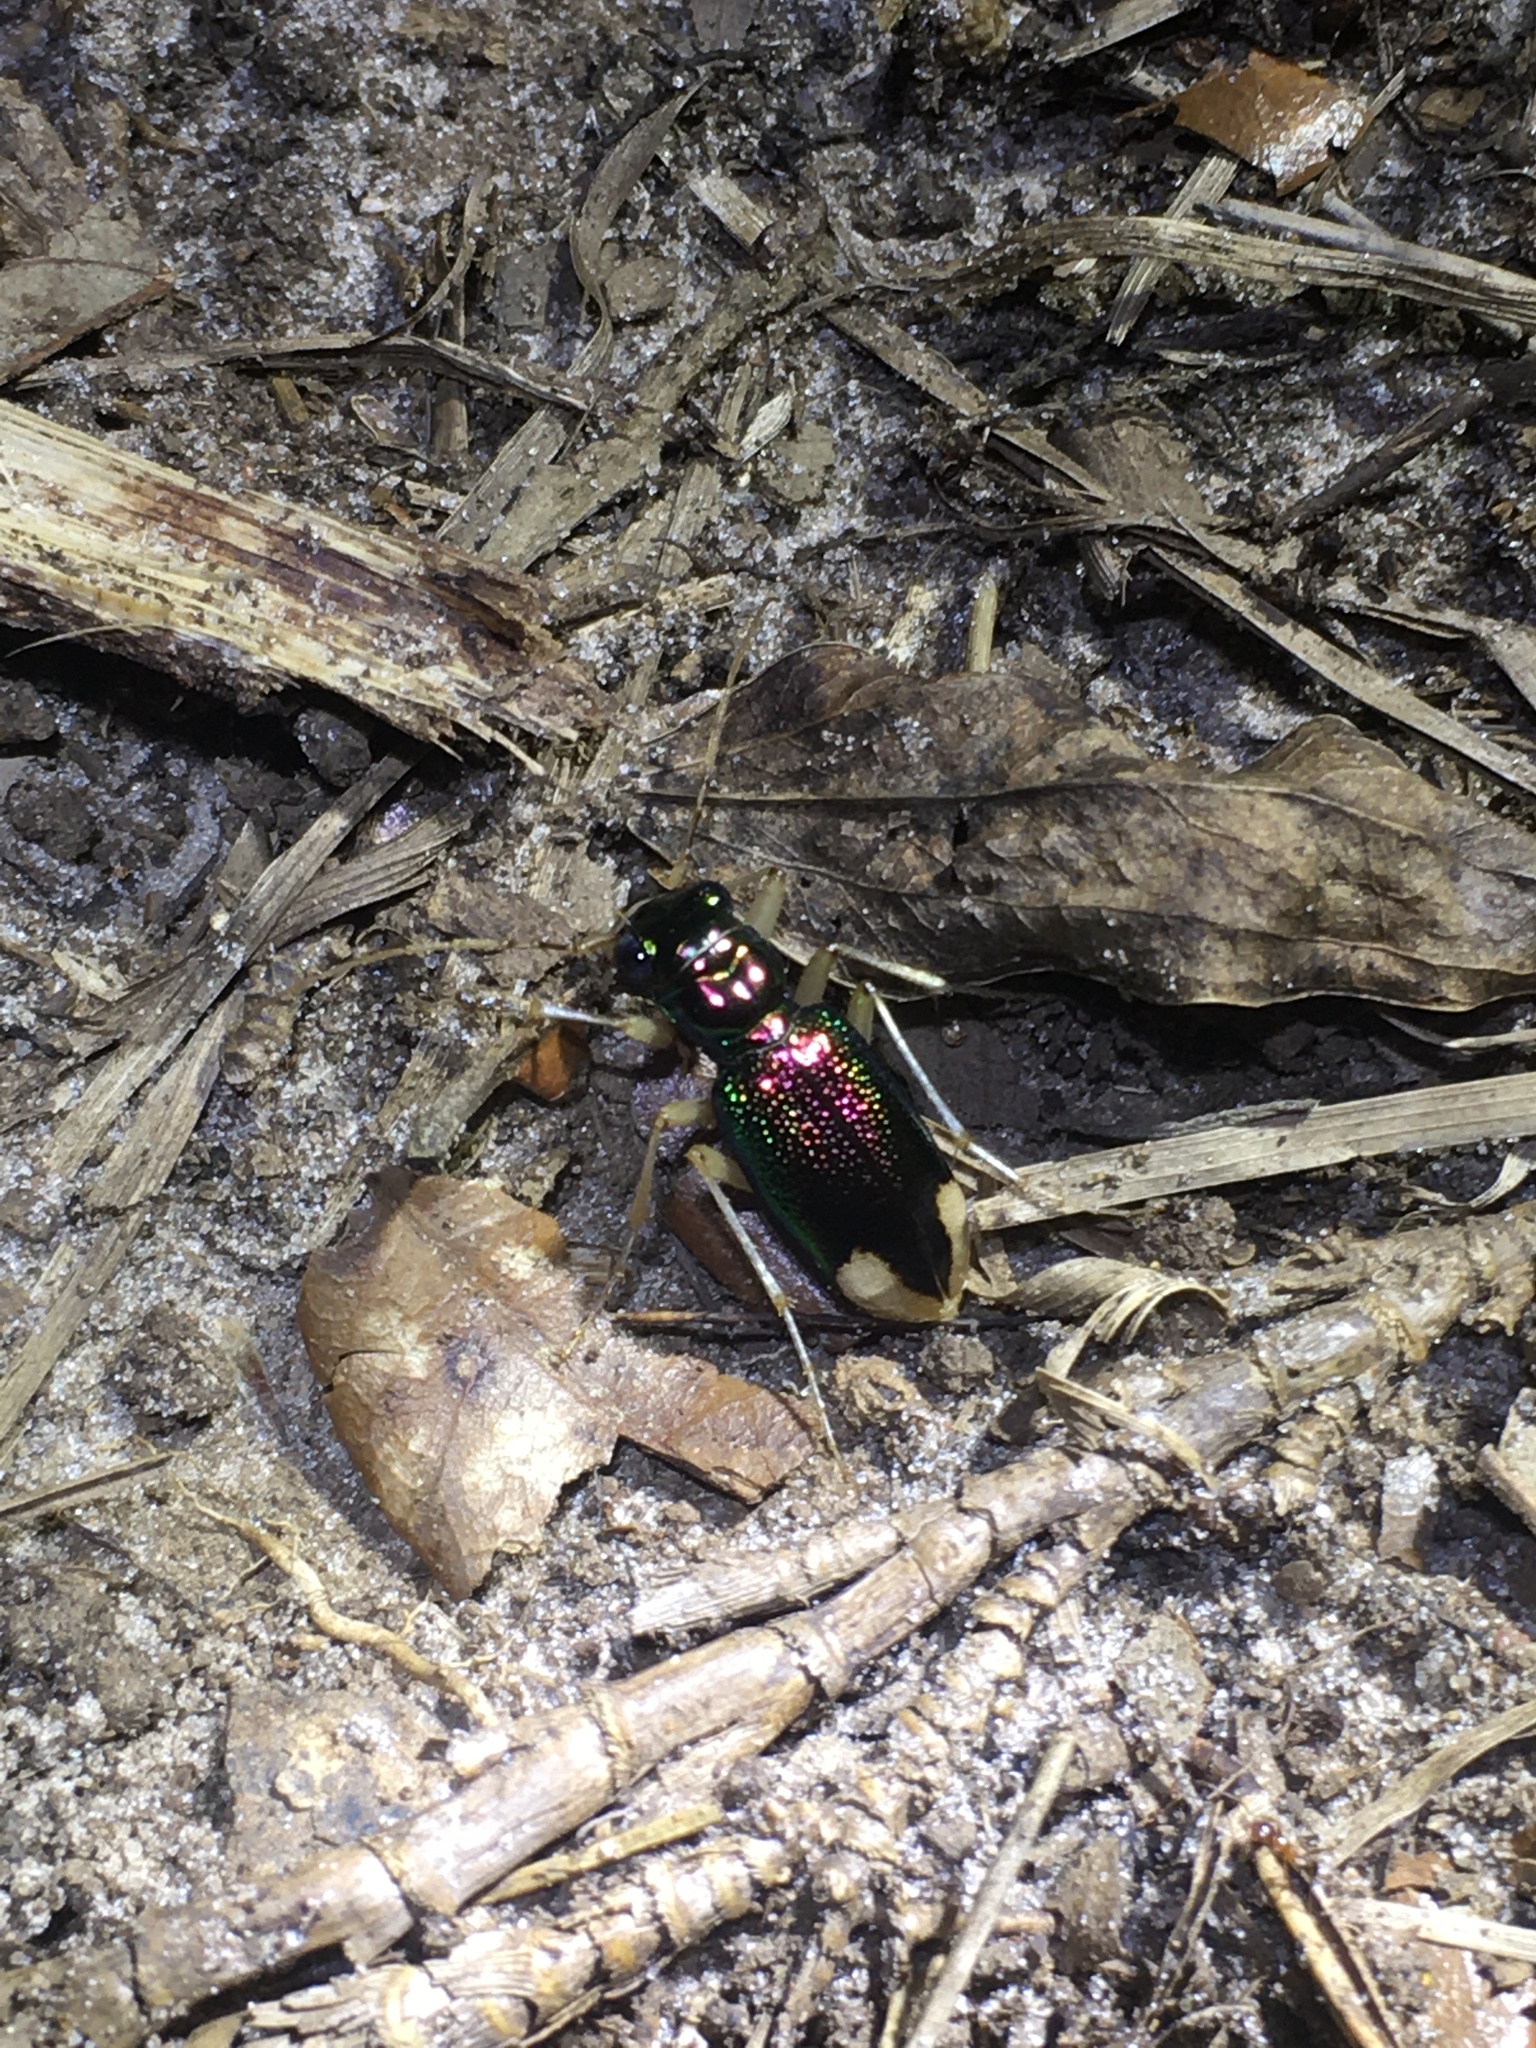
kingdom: Animalia
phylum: Arthropoda
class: Insecta
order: Coleoptera
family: Carabidae
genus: Tetracha
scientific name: Tetracha carolina
